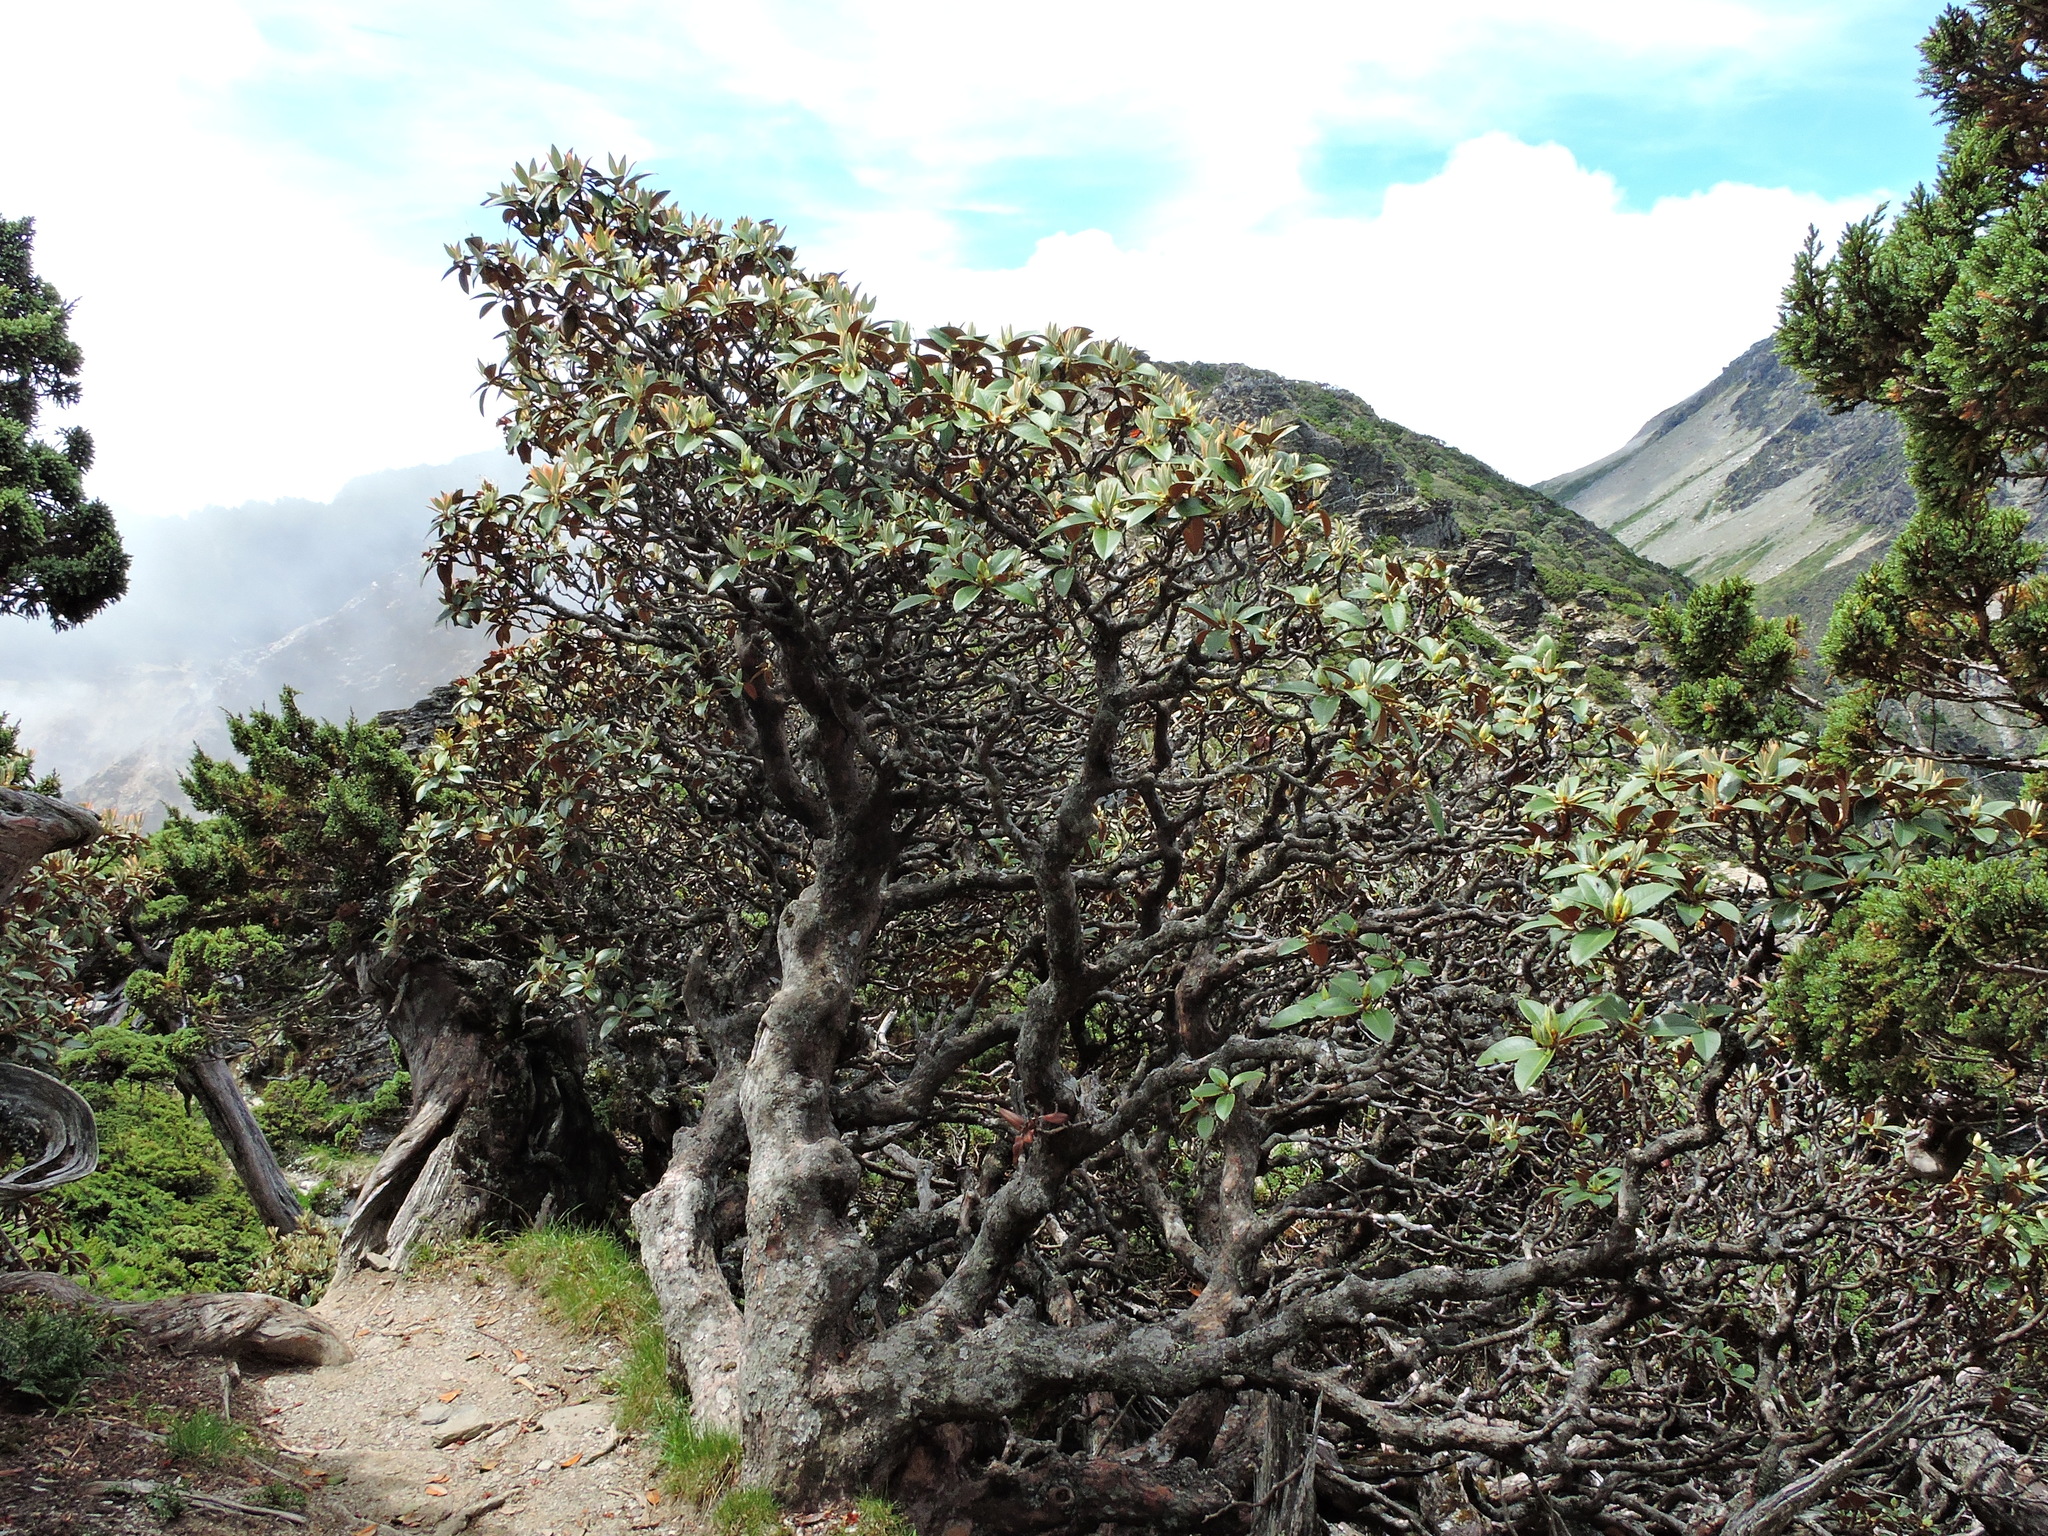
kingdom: Plantae
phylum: Tracheophyta
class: Magnoliopsida
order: Ericales
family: Ericaceae
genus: Rhododendron
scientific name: Rhododendron hyperythrum
